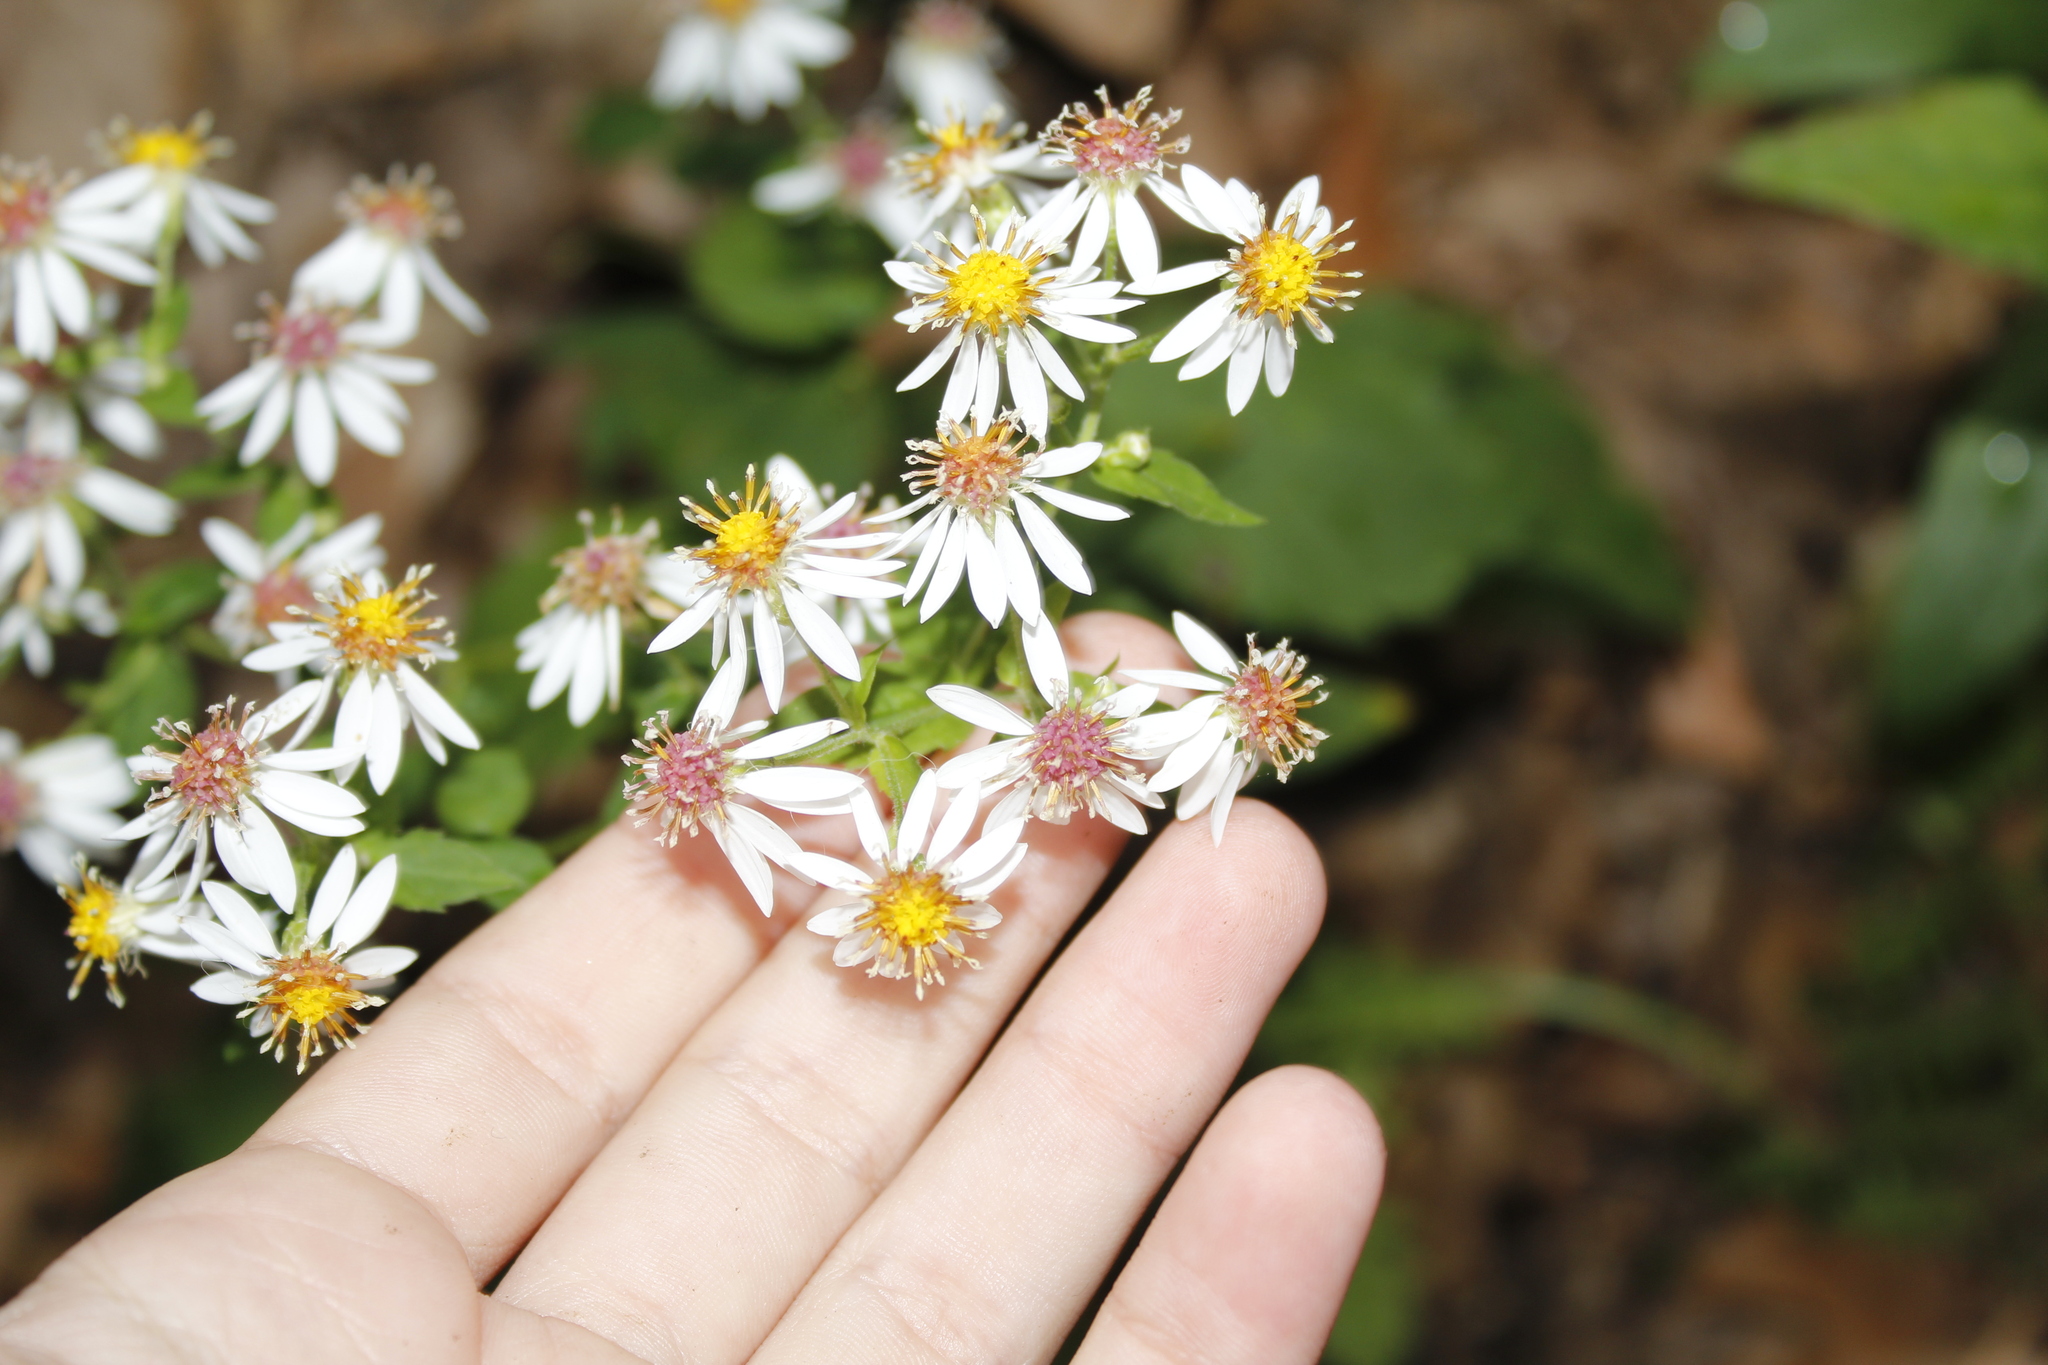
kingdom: Plantae
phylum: Tracheophyta
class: Magnoliopsida
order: Asterales
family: Asteraceae
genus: Eurybia
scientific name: Eurybia divaricata
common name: White wood aster
